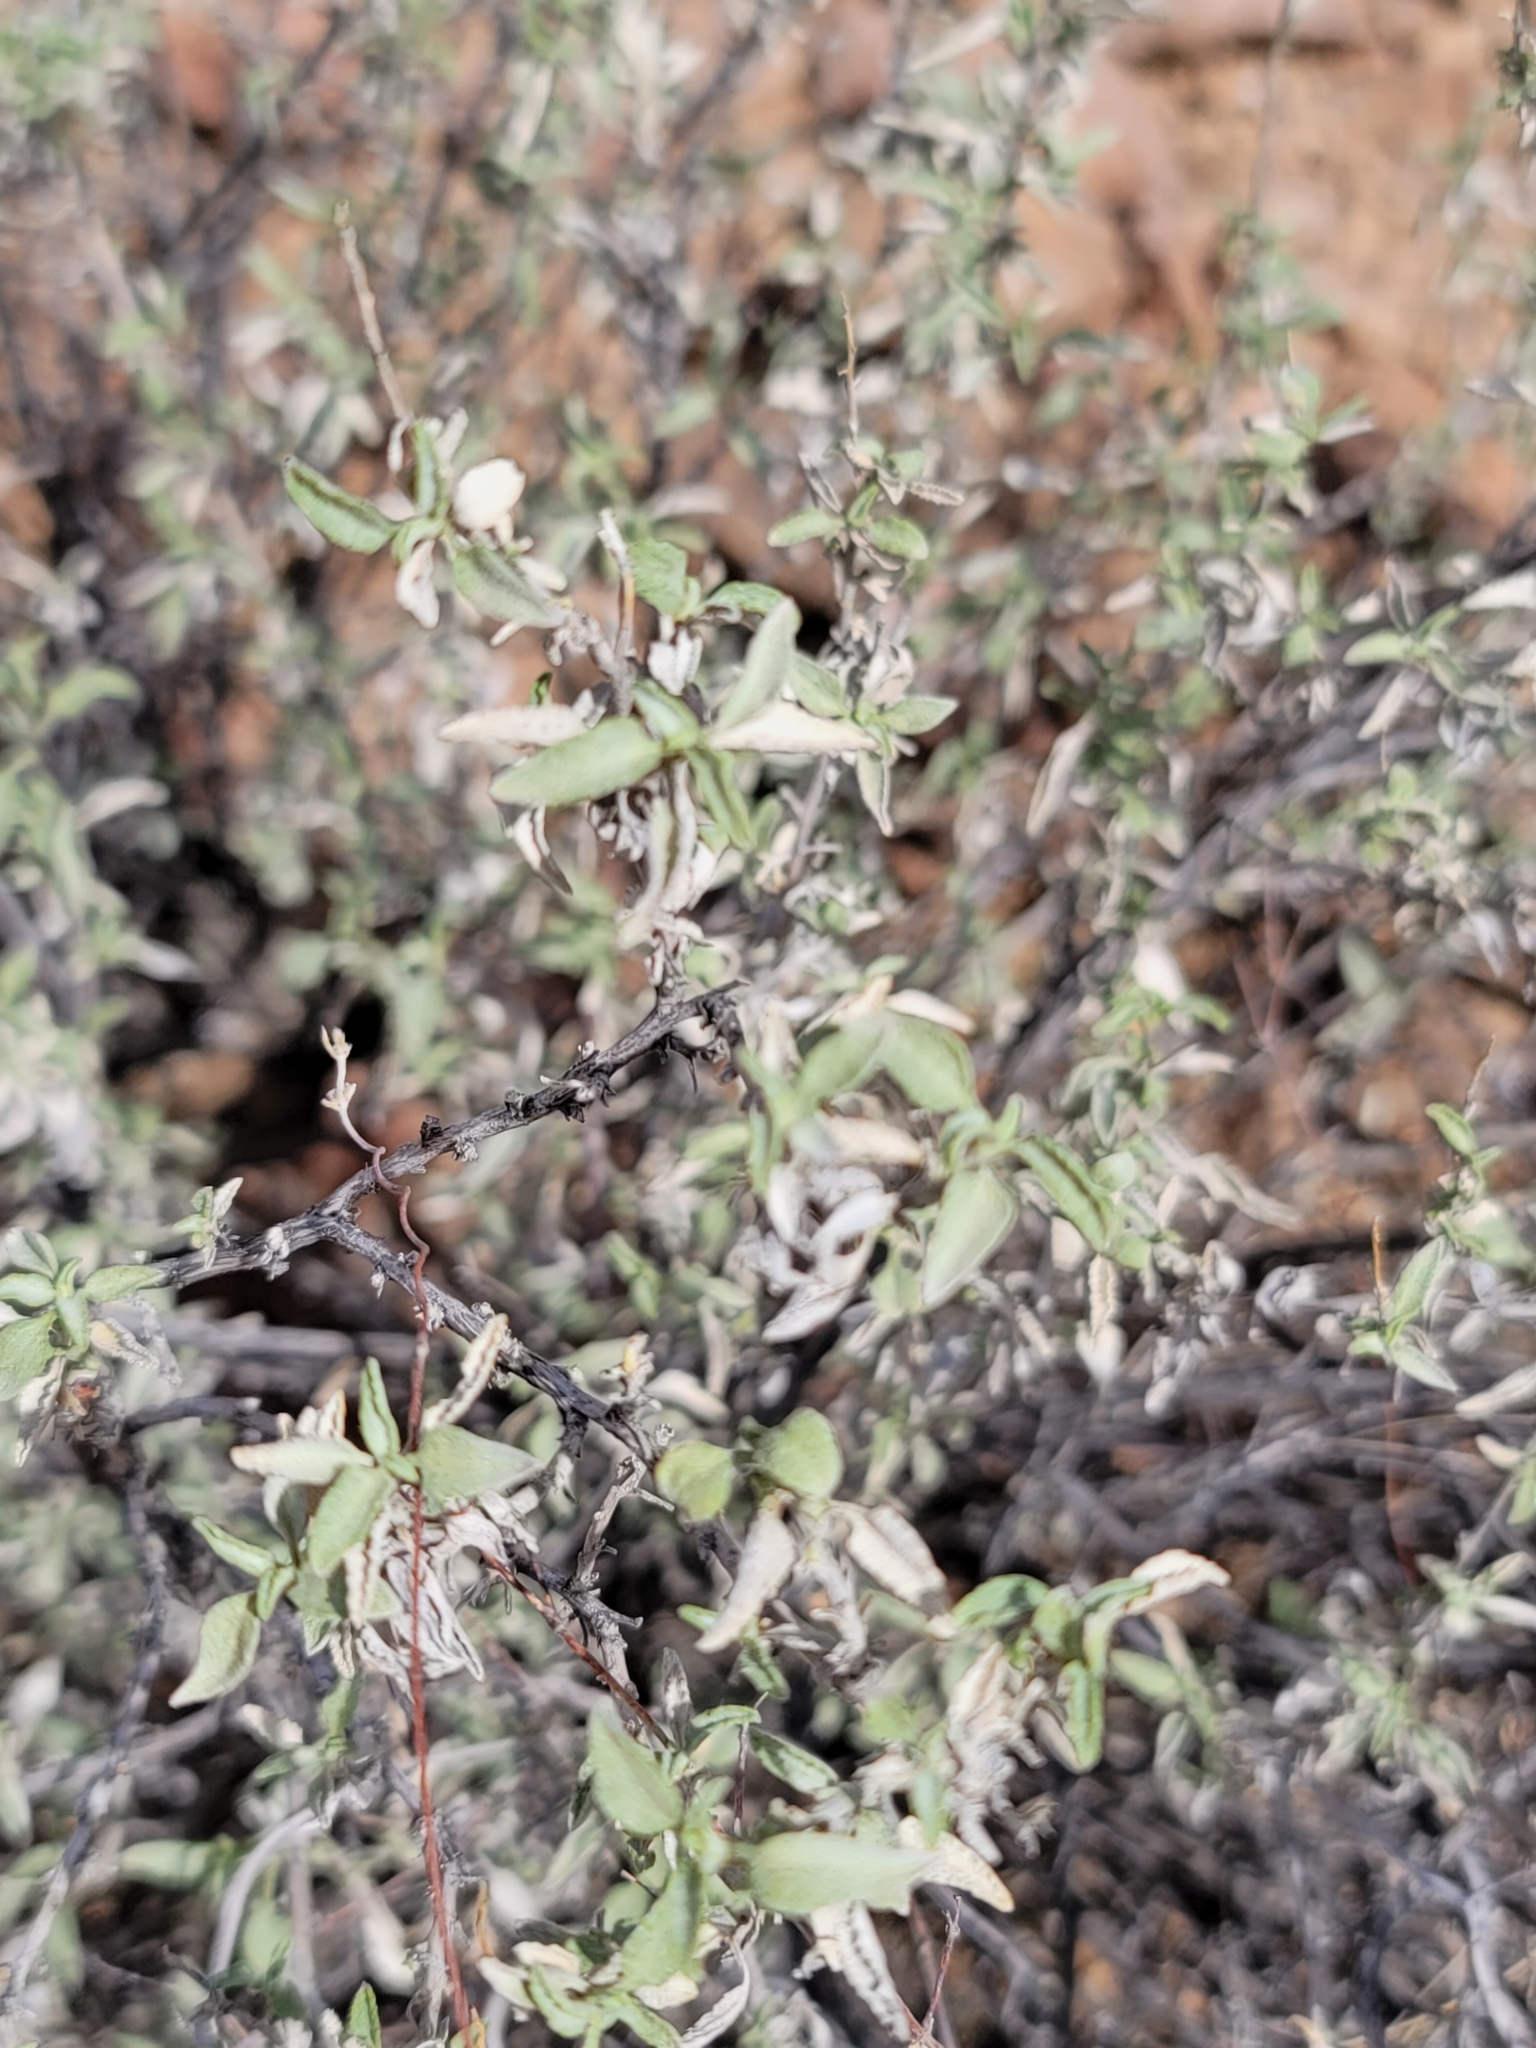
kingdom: Plantae
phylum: Tracheophyta
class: Magnoliopsida
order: Asterales
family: Asteraceae
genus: Ambrosia
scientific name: Ambrosia deltoidea
